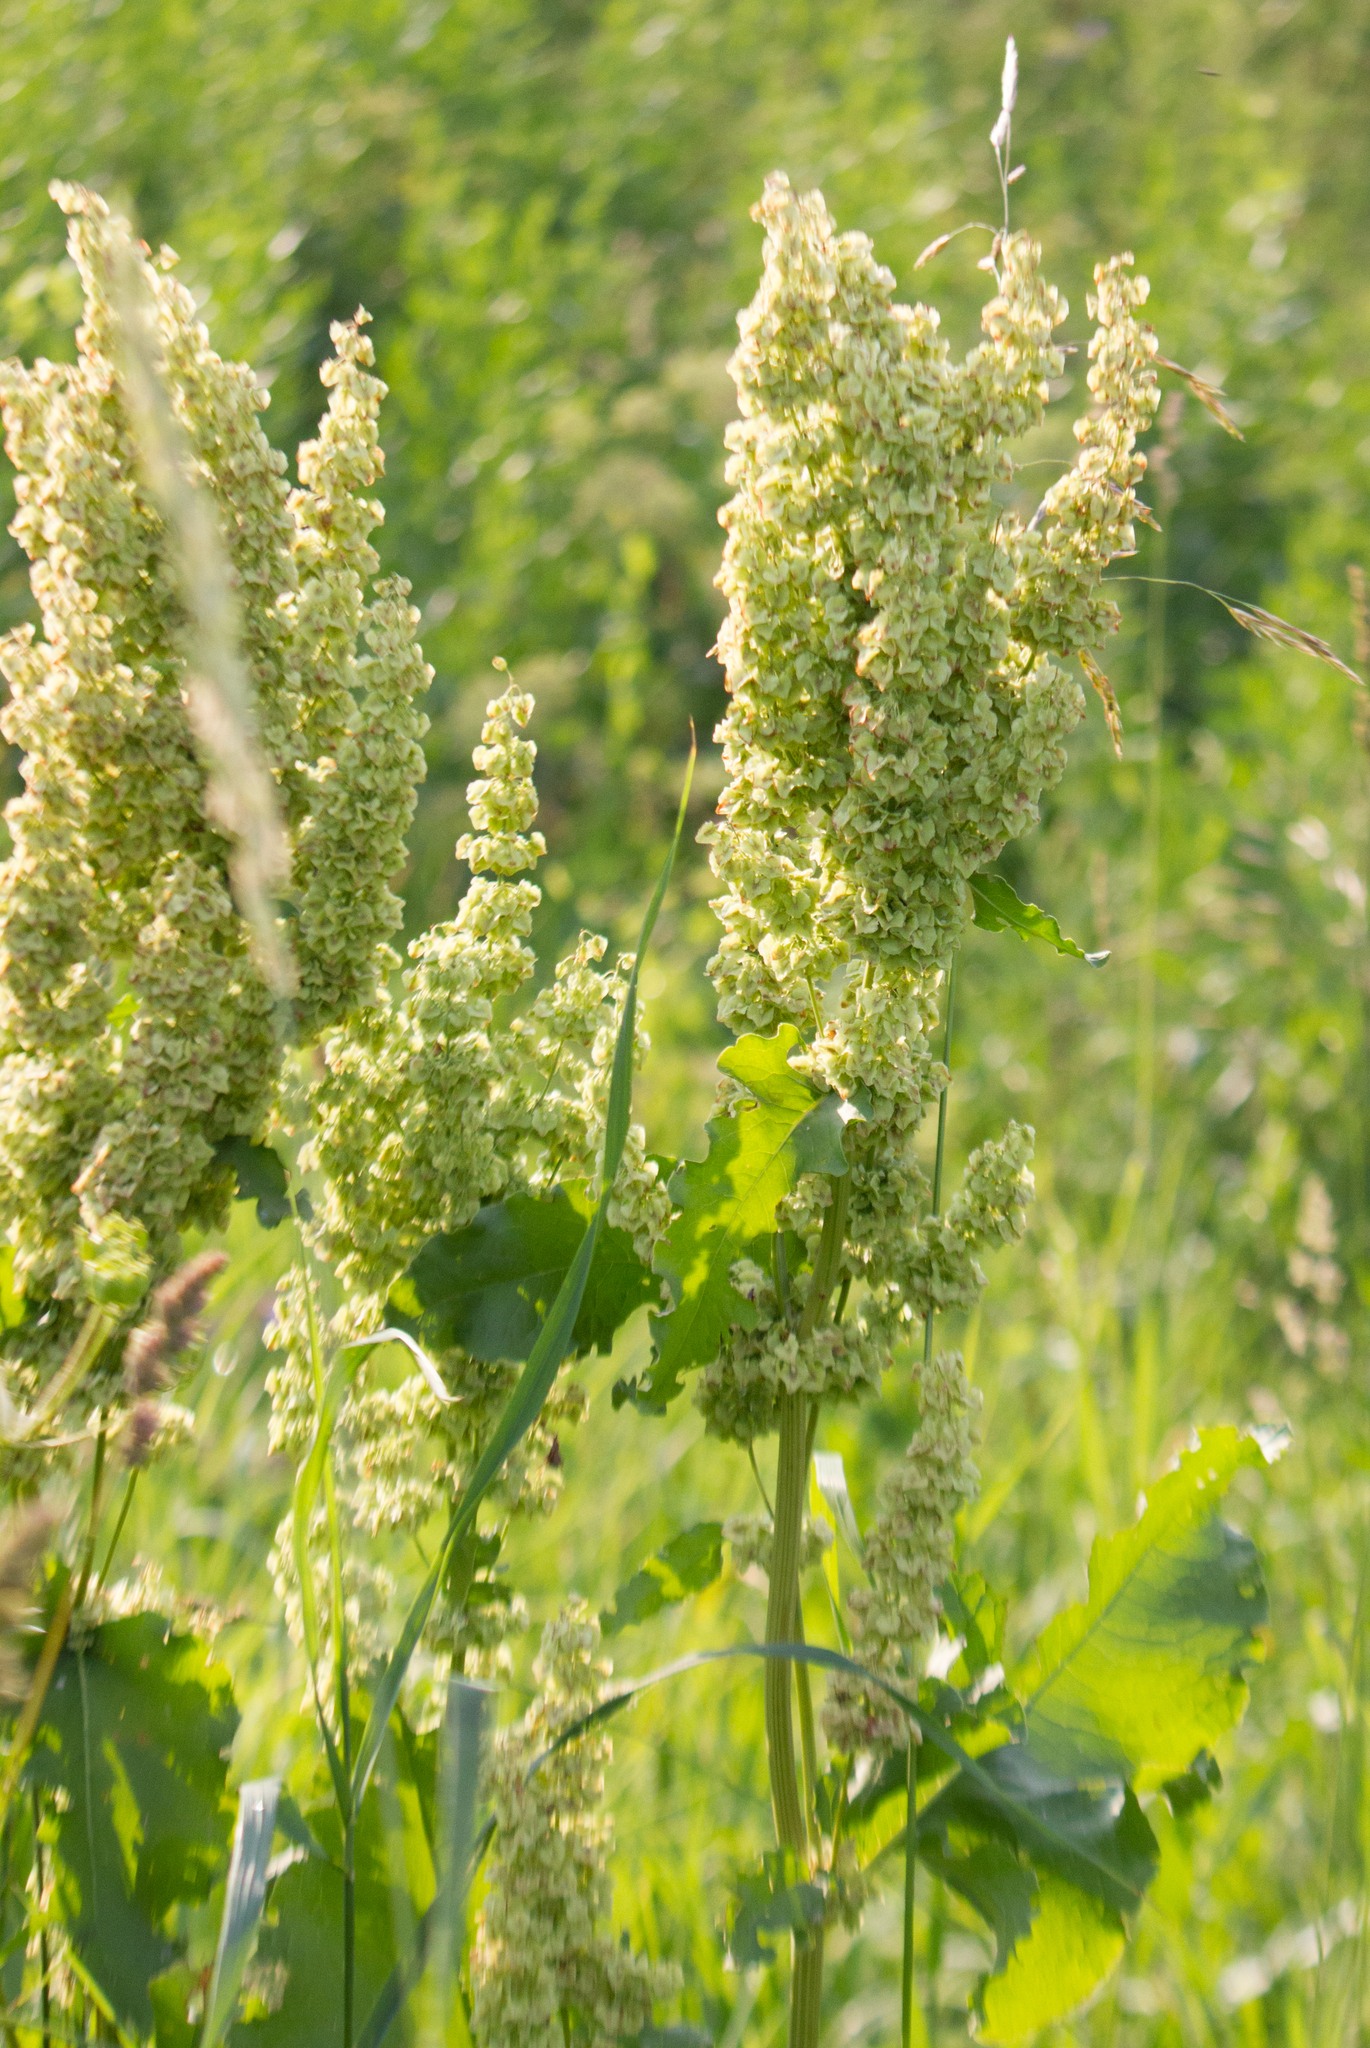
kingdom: Plantae
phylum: Tracheophyta
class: Magnoliopsida
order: Caryophyllales
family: Polygonaceae
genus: Rumex
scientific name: Rumex confertus
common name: Russian dock
